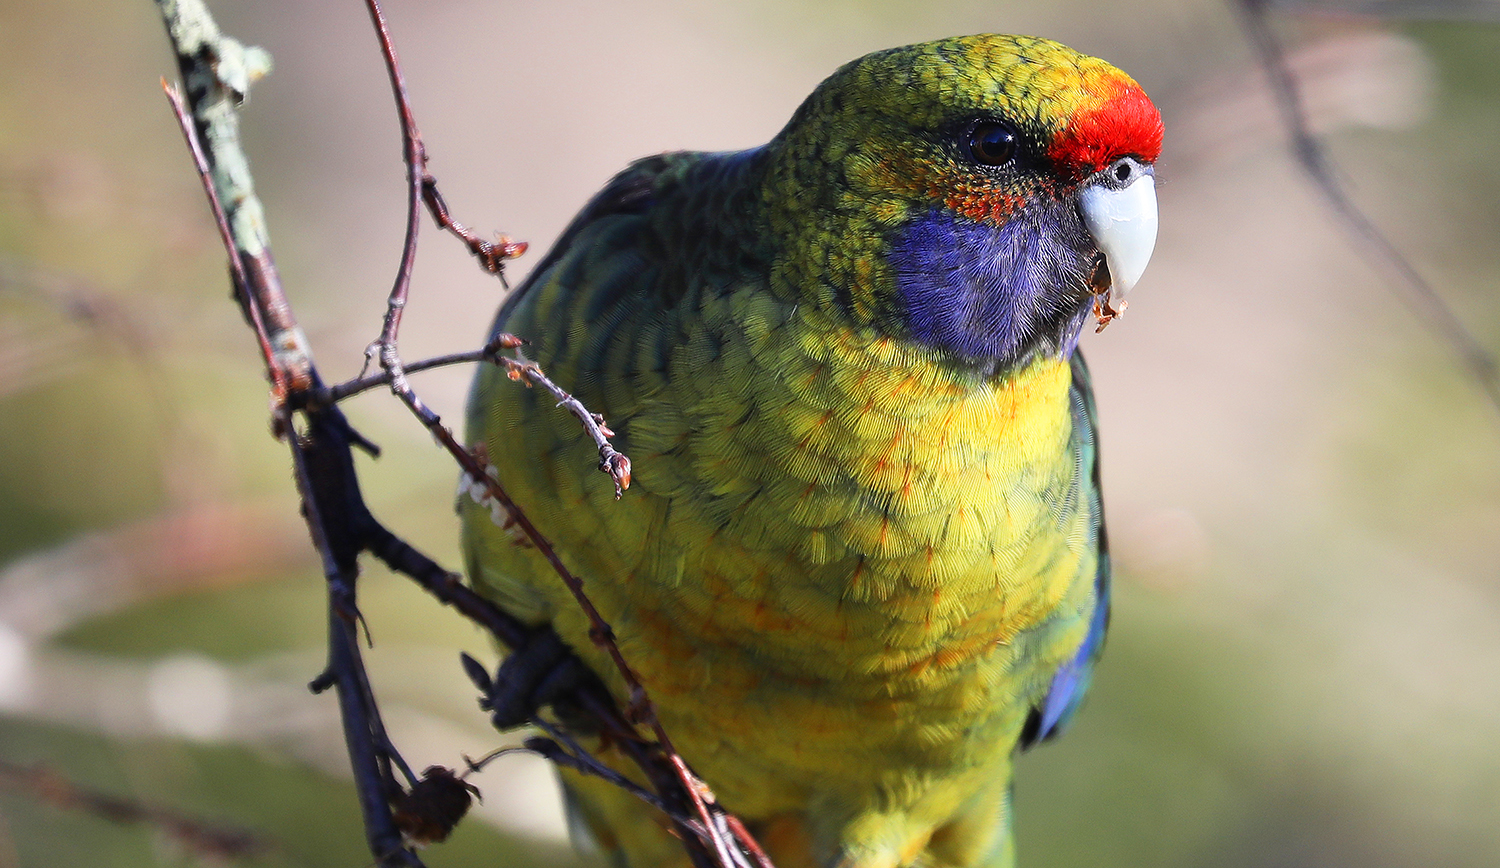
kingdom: Animalia
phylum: Chordata
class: Aves
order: Psittaciformes
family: Psittacidae
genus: Platycercus
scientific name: Platycercus caledonicus
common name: Green rosella
